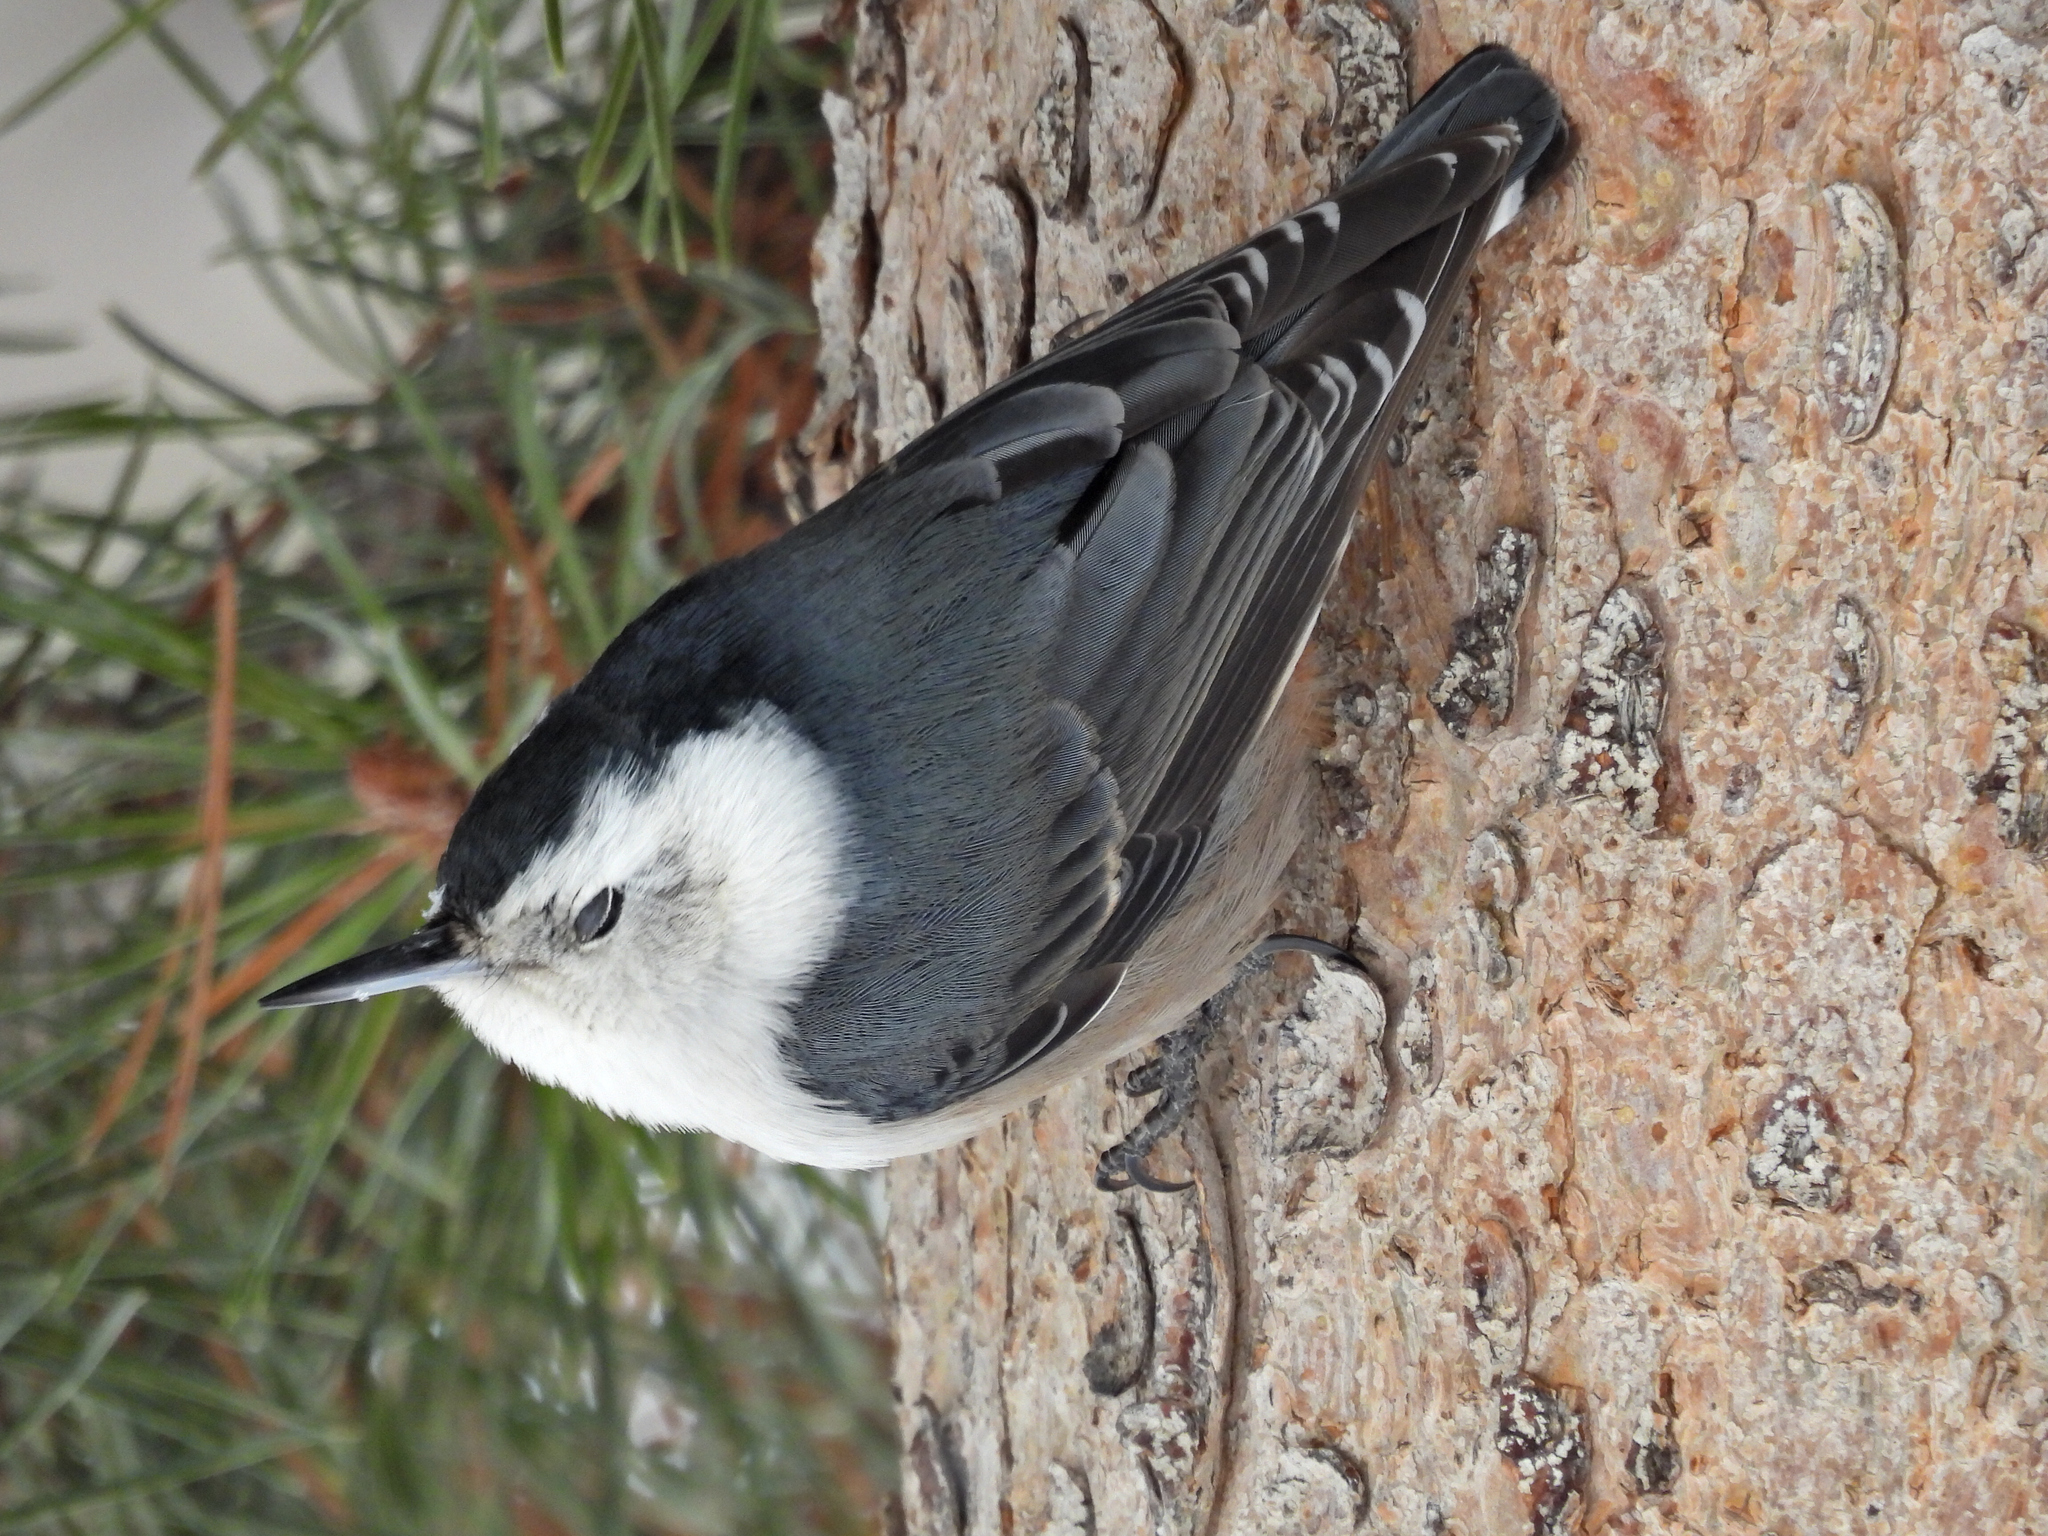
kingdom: Animalia
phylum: Chordata
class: Aves
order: Passeriformes
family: Sittidae
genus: Sitta
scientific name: Sitta carolinensis
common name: White-breasted nuthatch
